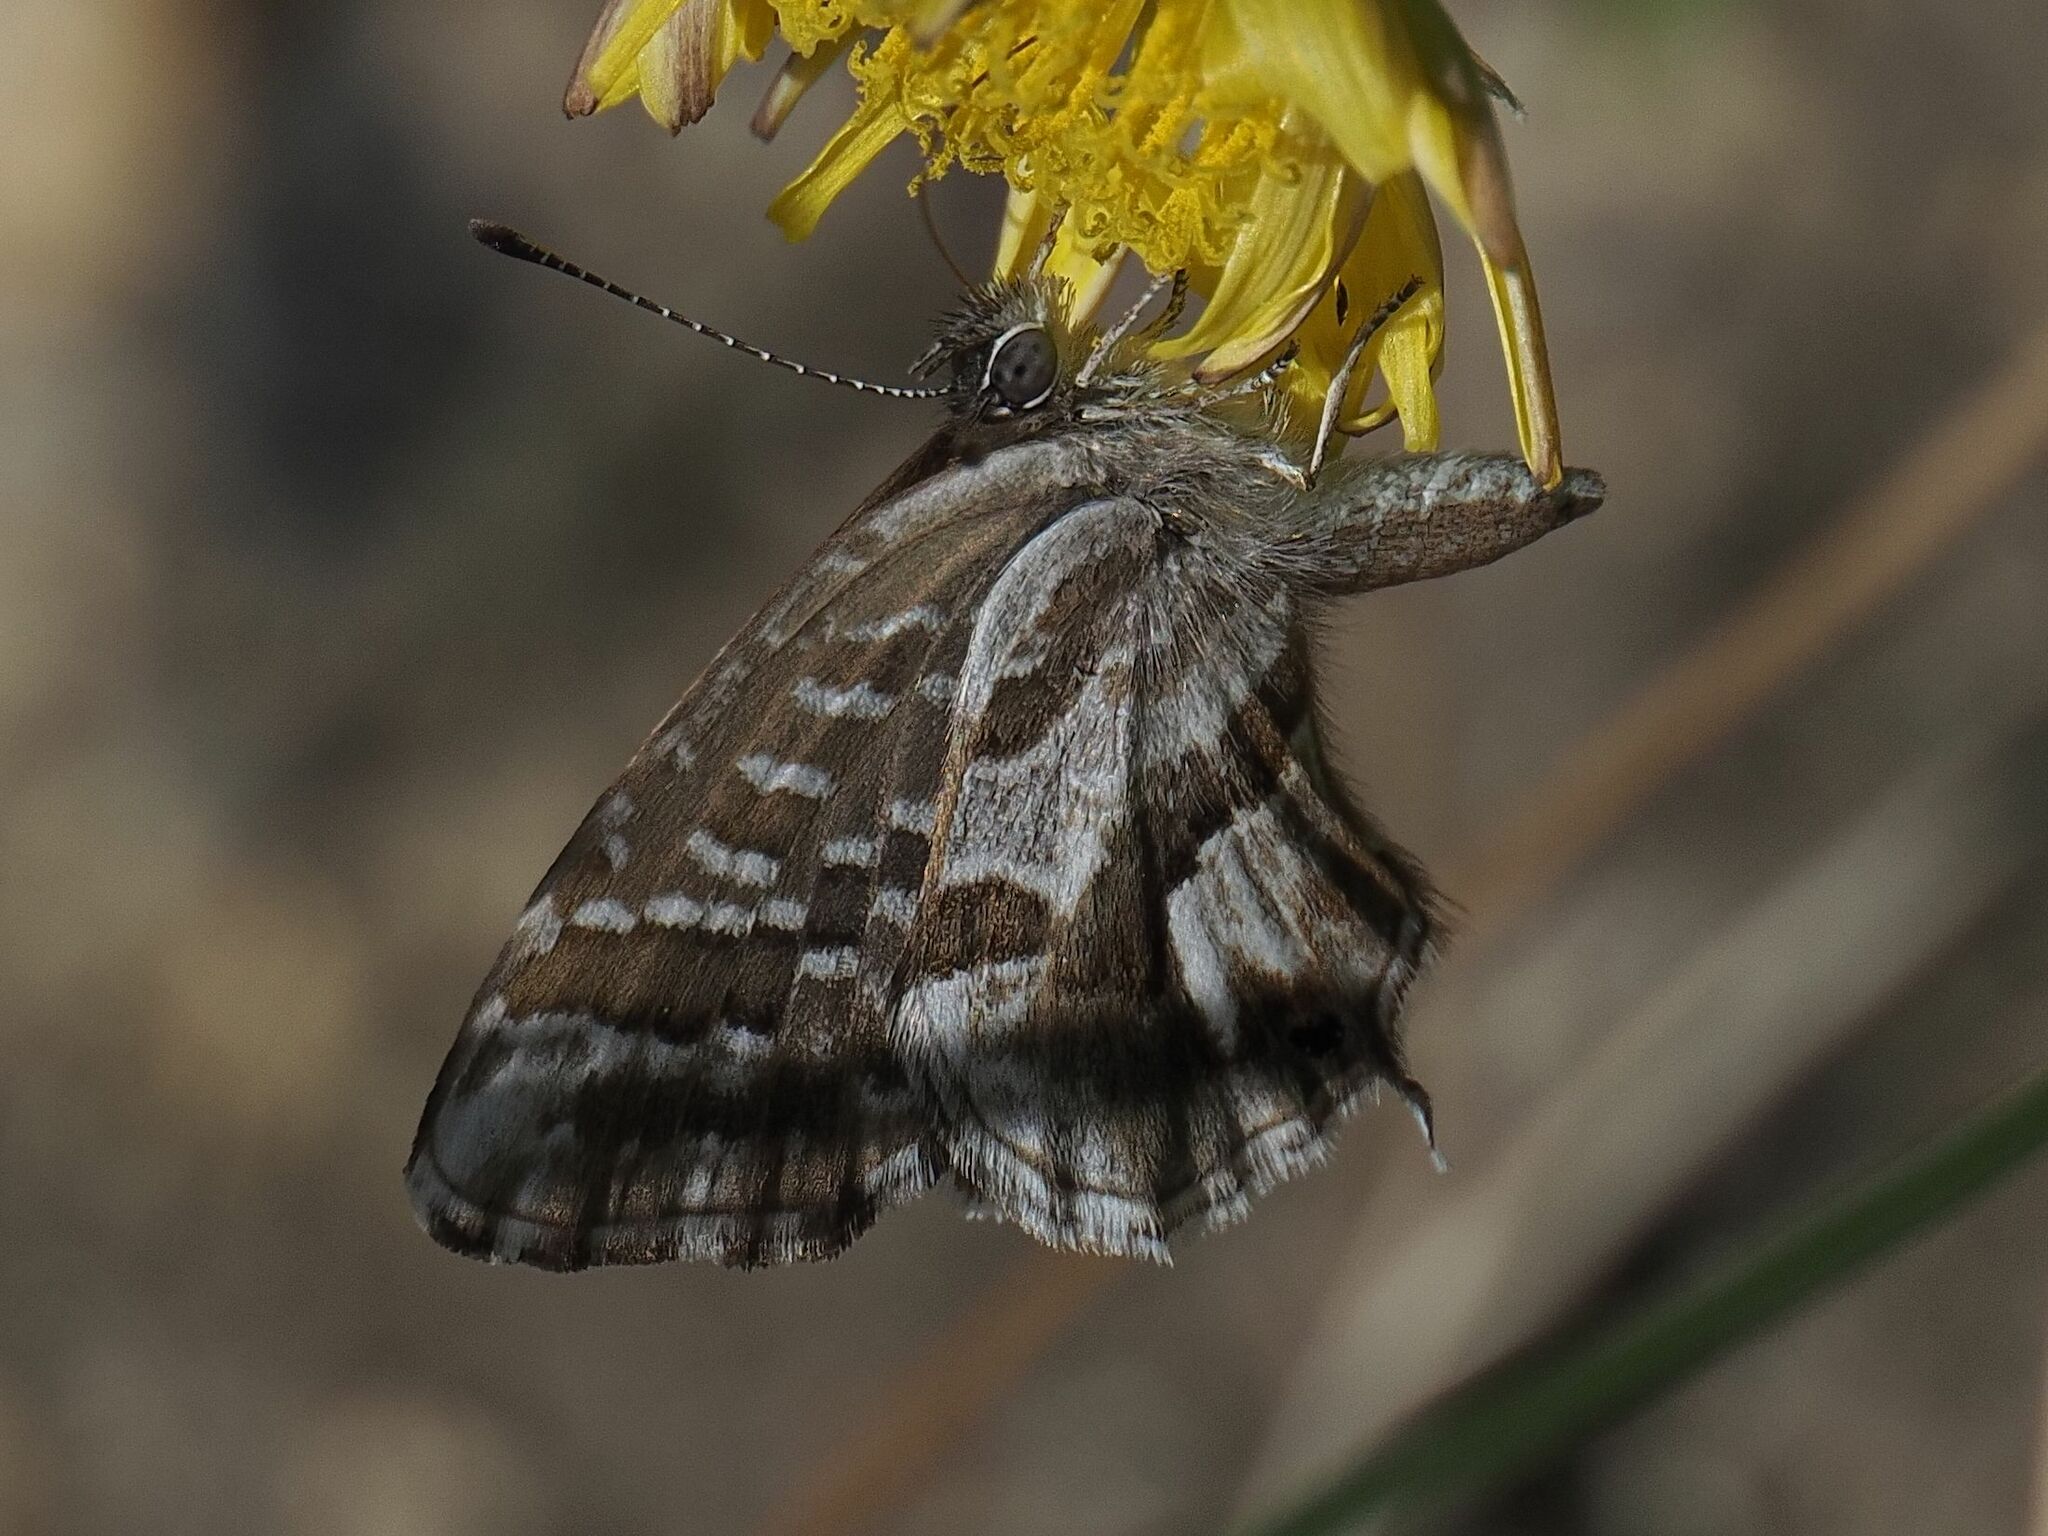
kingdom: Animalia
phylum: Arthropoda
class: Insecta
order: Lepidoptera
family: Lycaenidae
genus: Cacyreus
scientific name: Cacyreus marshalli
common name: Geranium bronze
